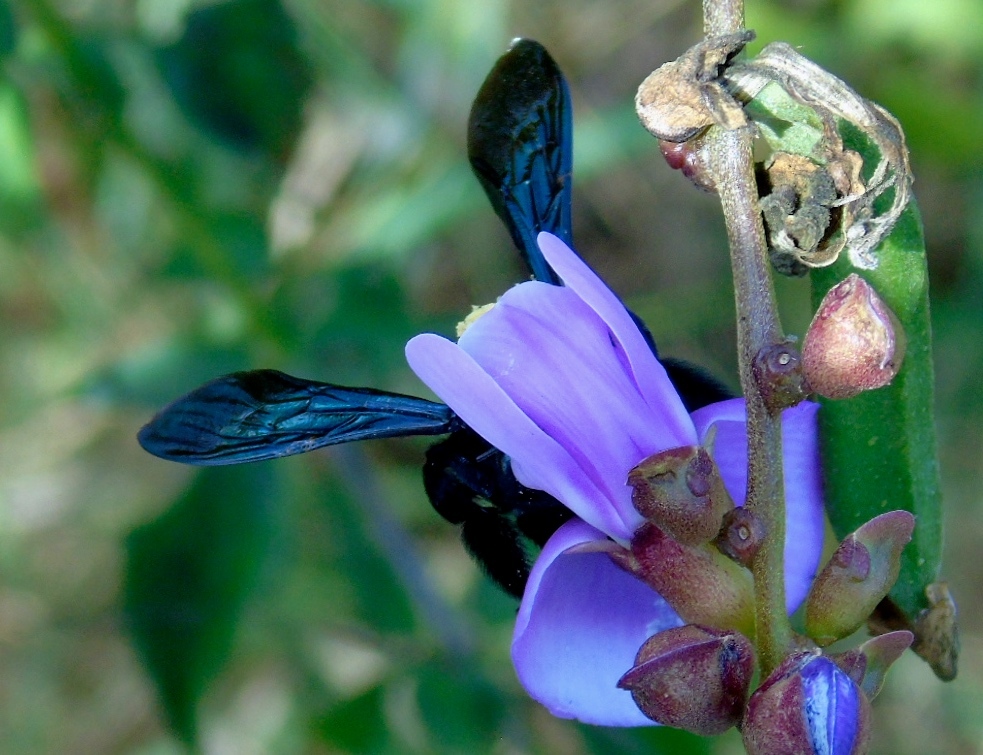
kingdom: Animalia
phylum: Arthropoda
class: Insecta
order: Hymenoptera
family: Apidae
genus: Xylocopa
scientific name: Xylocopa
